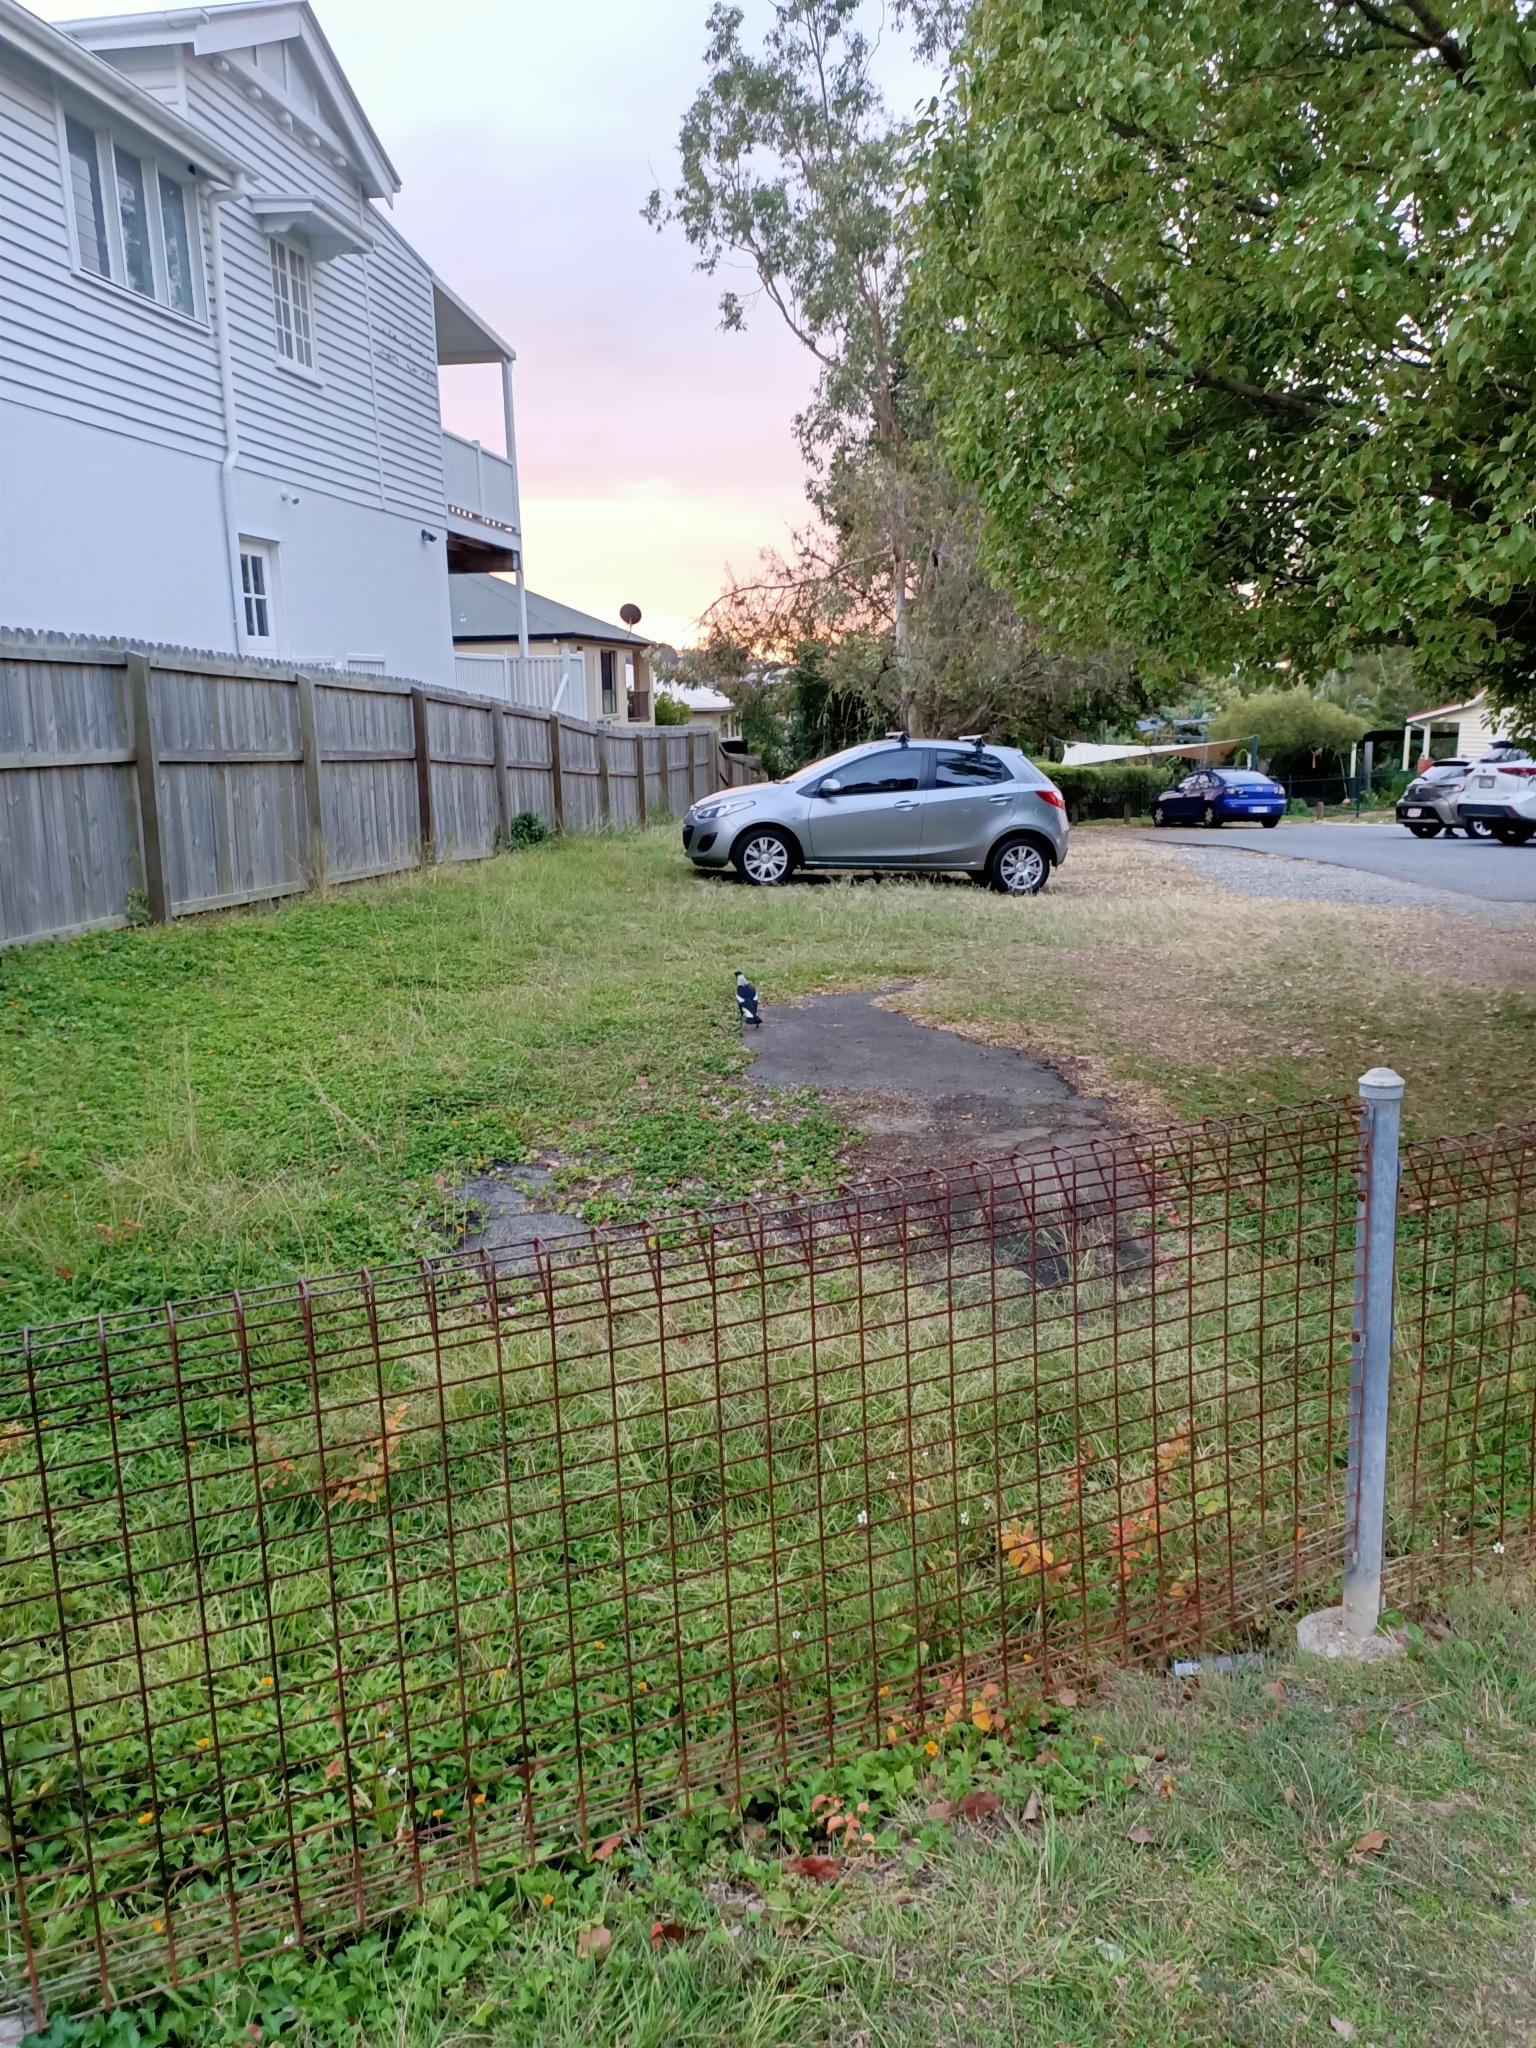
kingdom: Animalia
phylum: Chordata
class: Aves
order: Passeriformes
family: Cracticidae
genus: Gymnorhina
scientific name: Gymnorhina tibicen
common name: Australian magpie
